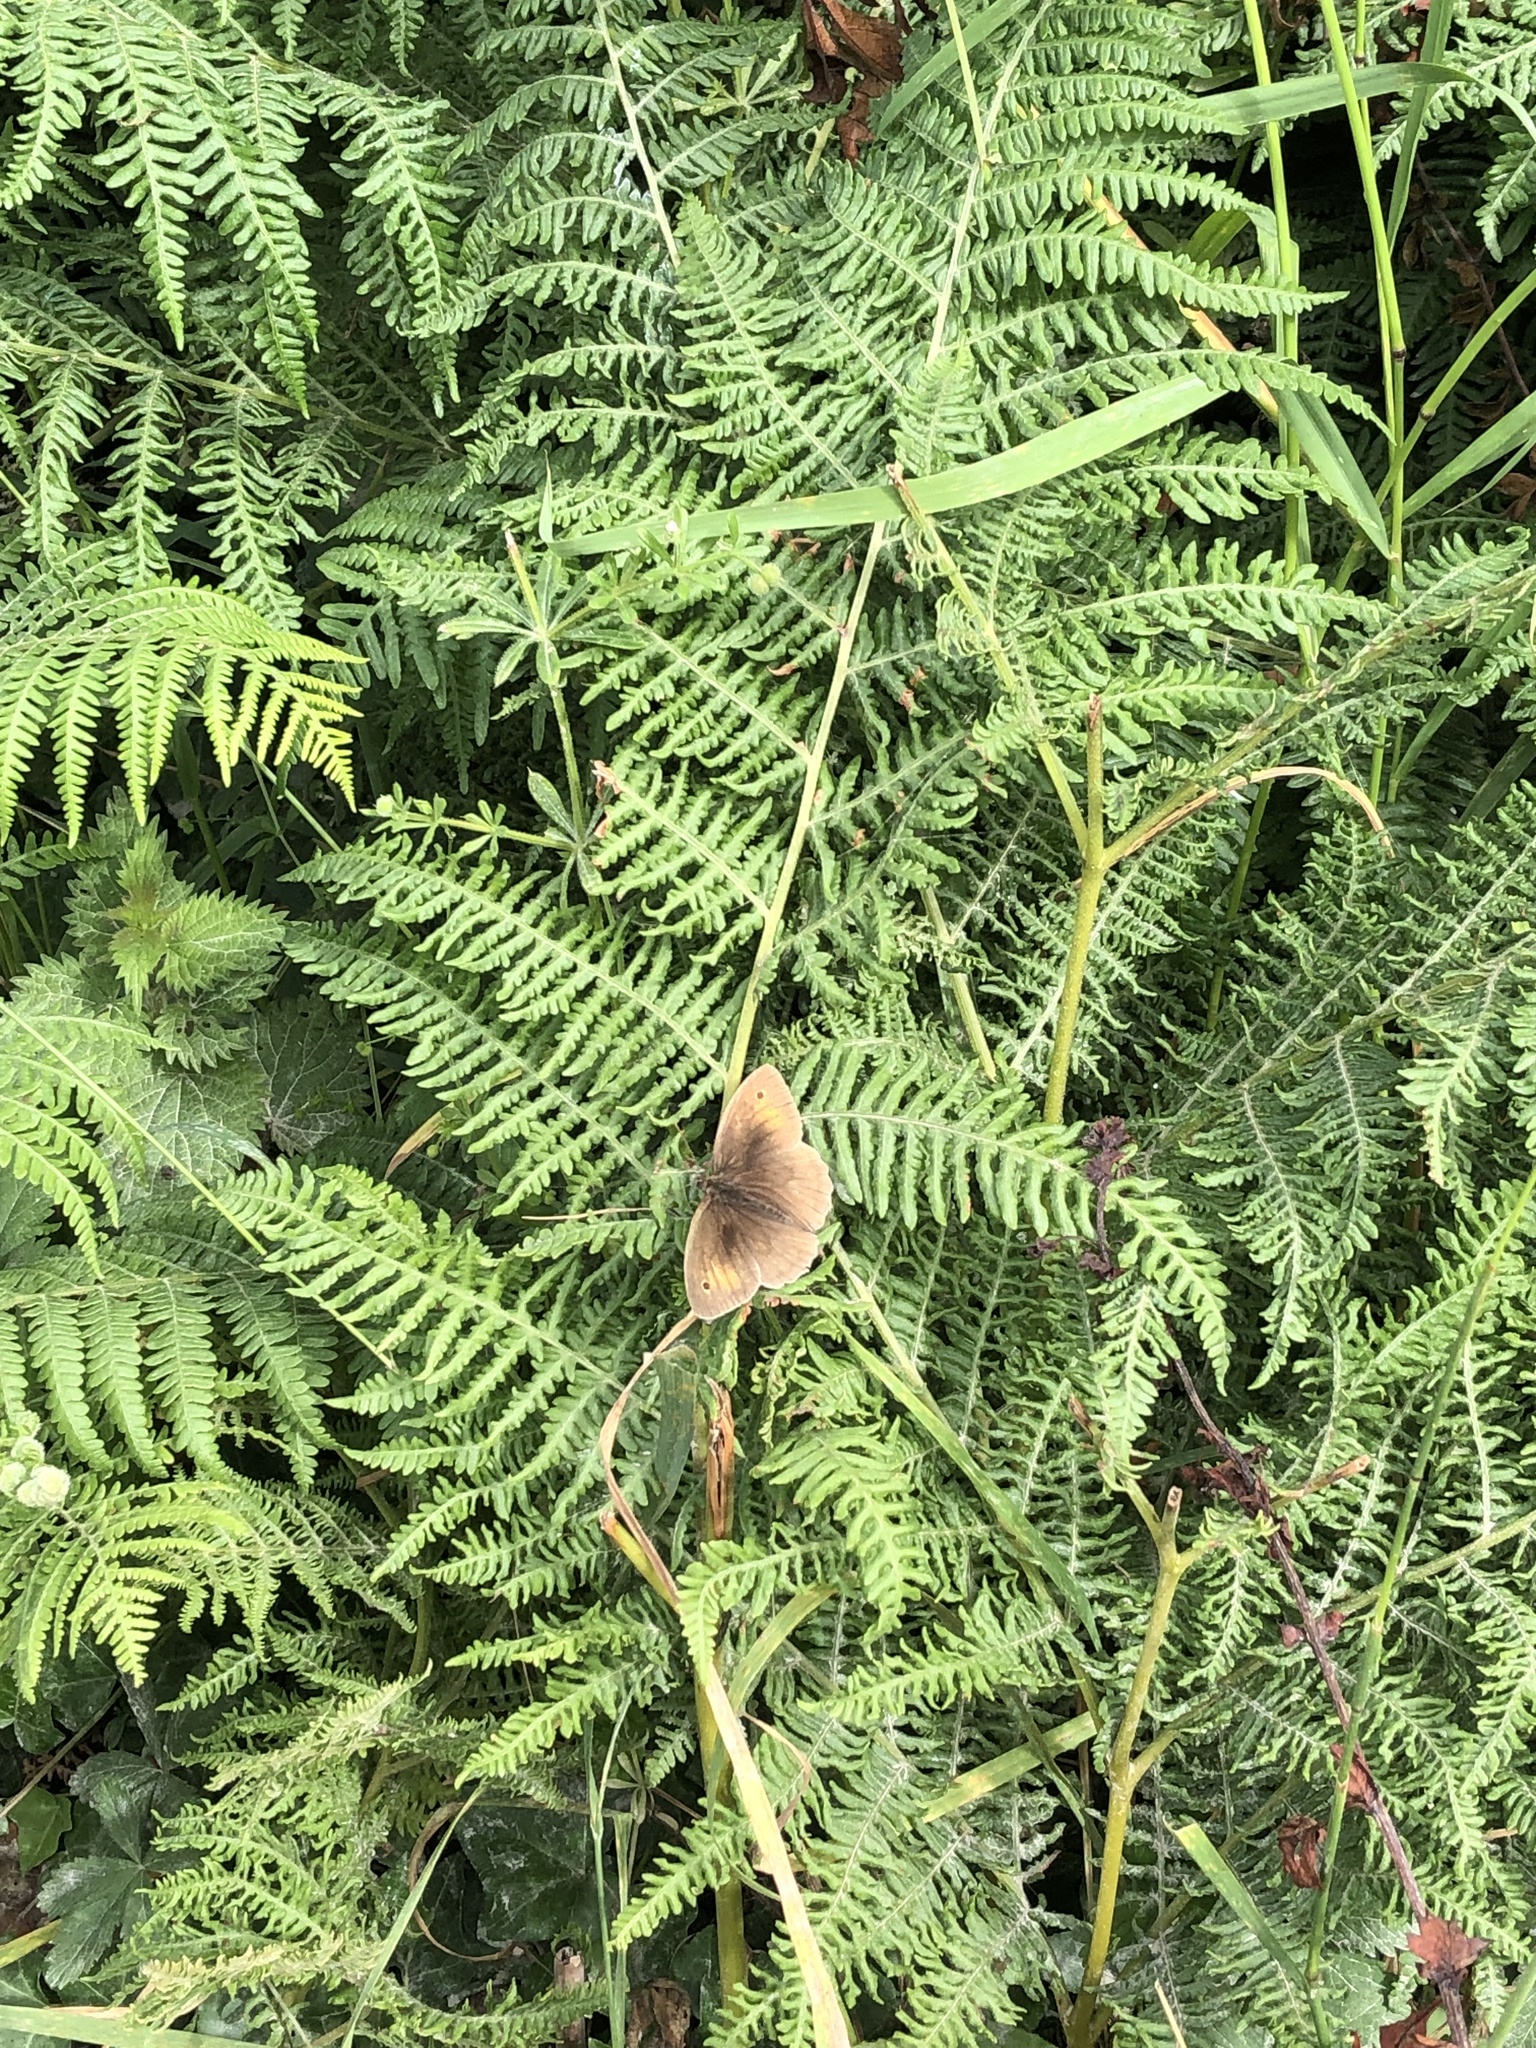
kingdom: Animalia
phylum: Arthropoda
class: Insecta
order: Lepidoptera
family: Nymphalidae
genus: Maniola
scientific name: Maniola jurtina
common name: Meadow brown
